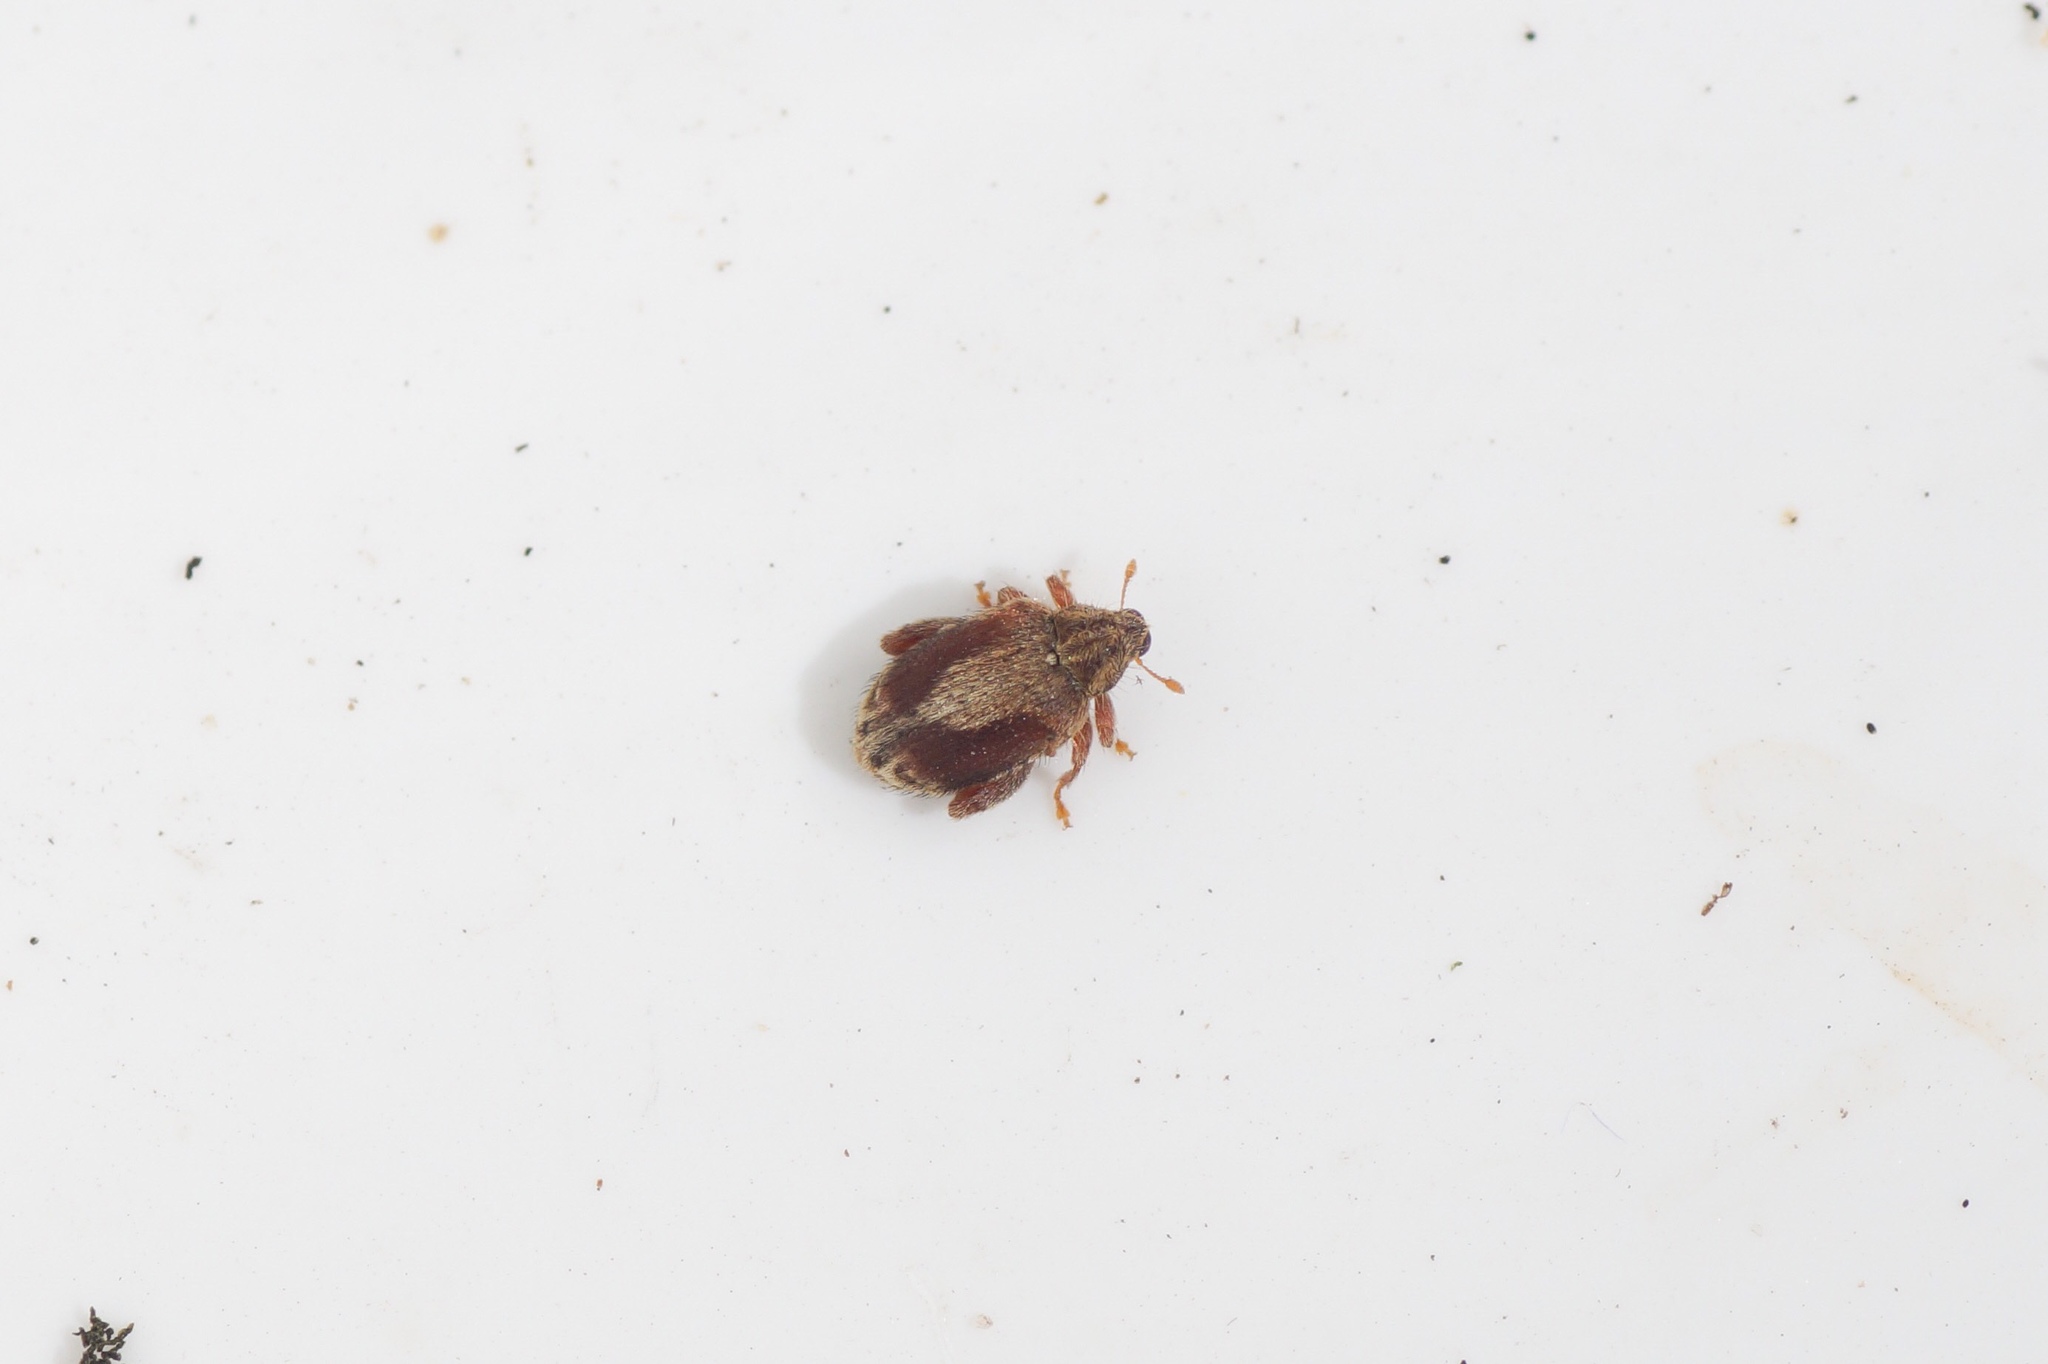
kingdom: Animalia
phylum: Arthropoda
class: Insecta
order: Coleoptera
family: Curculionidae
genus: Orchestes
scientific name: Orchestes quercus
